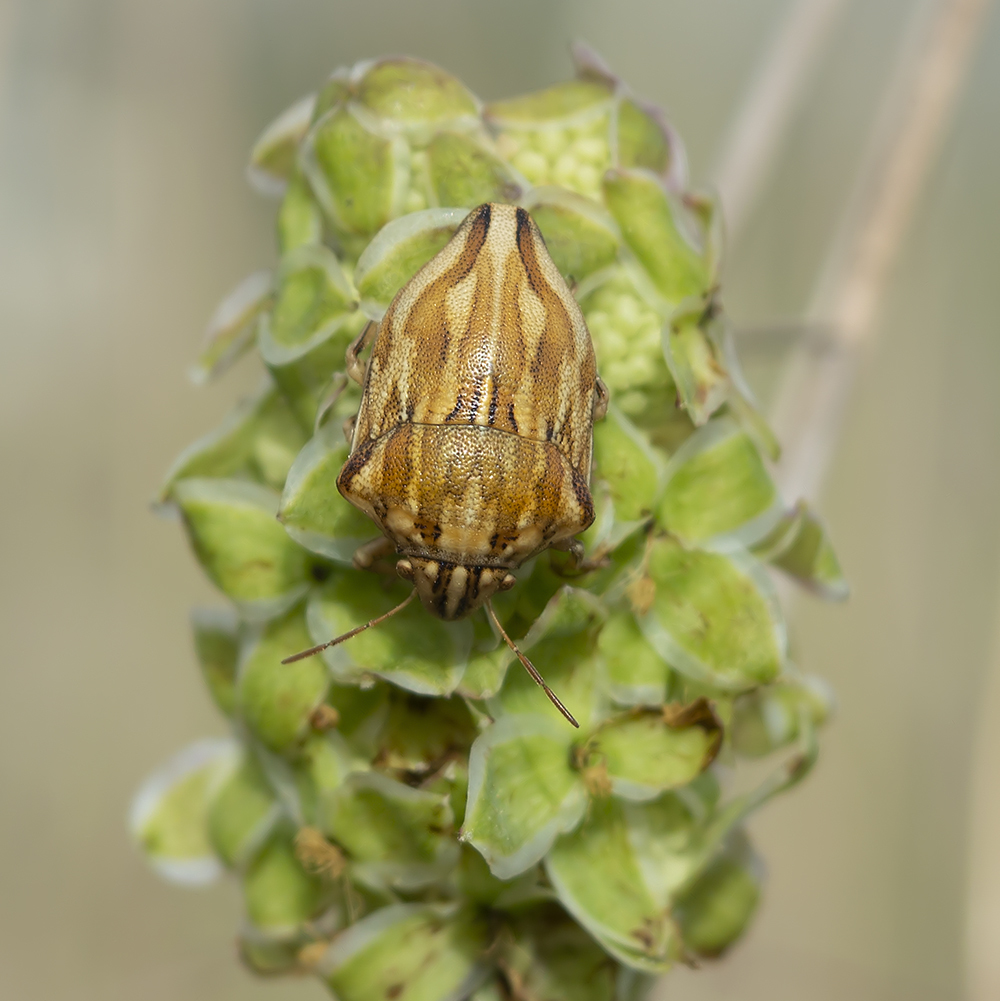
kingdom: Animalia
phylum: Arthropoda
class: Insecta
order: Hemiptera
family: Scutelleridae
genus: Odontotarsus
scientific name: Odontotarsus purpureolineatus
